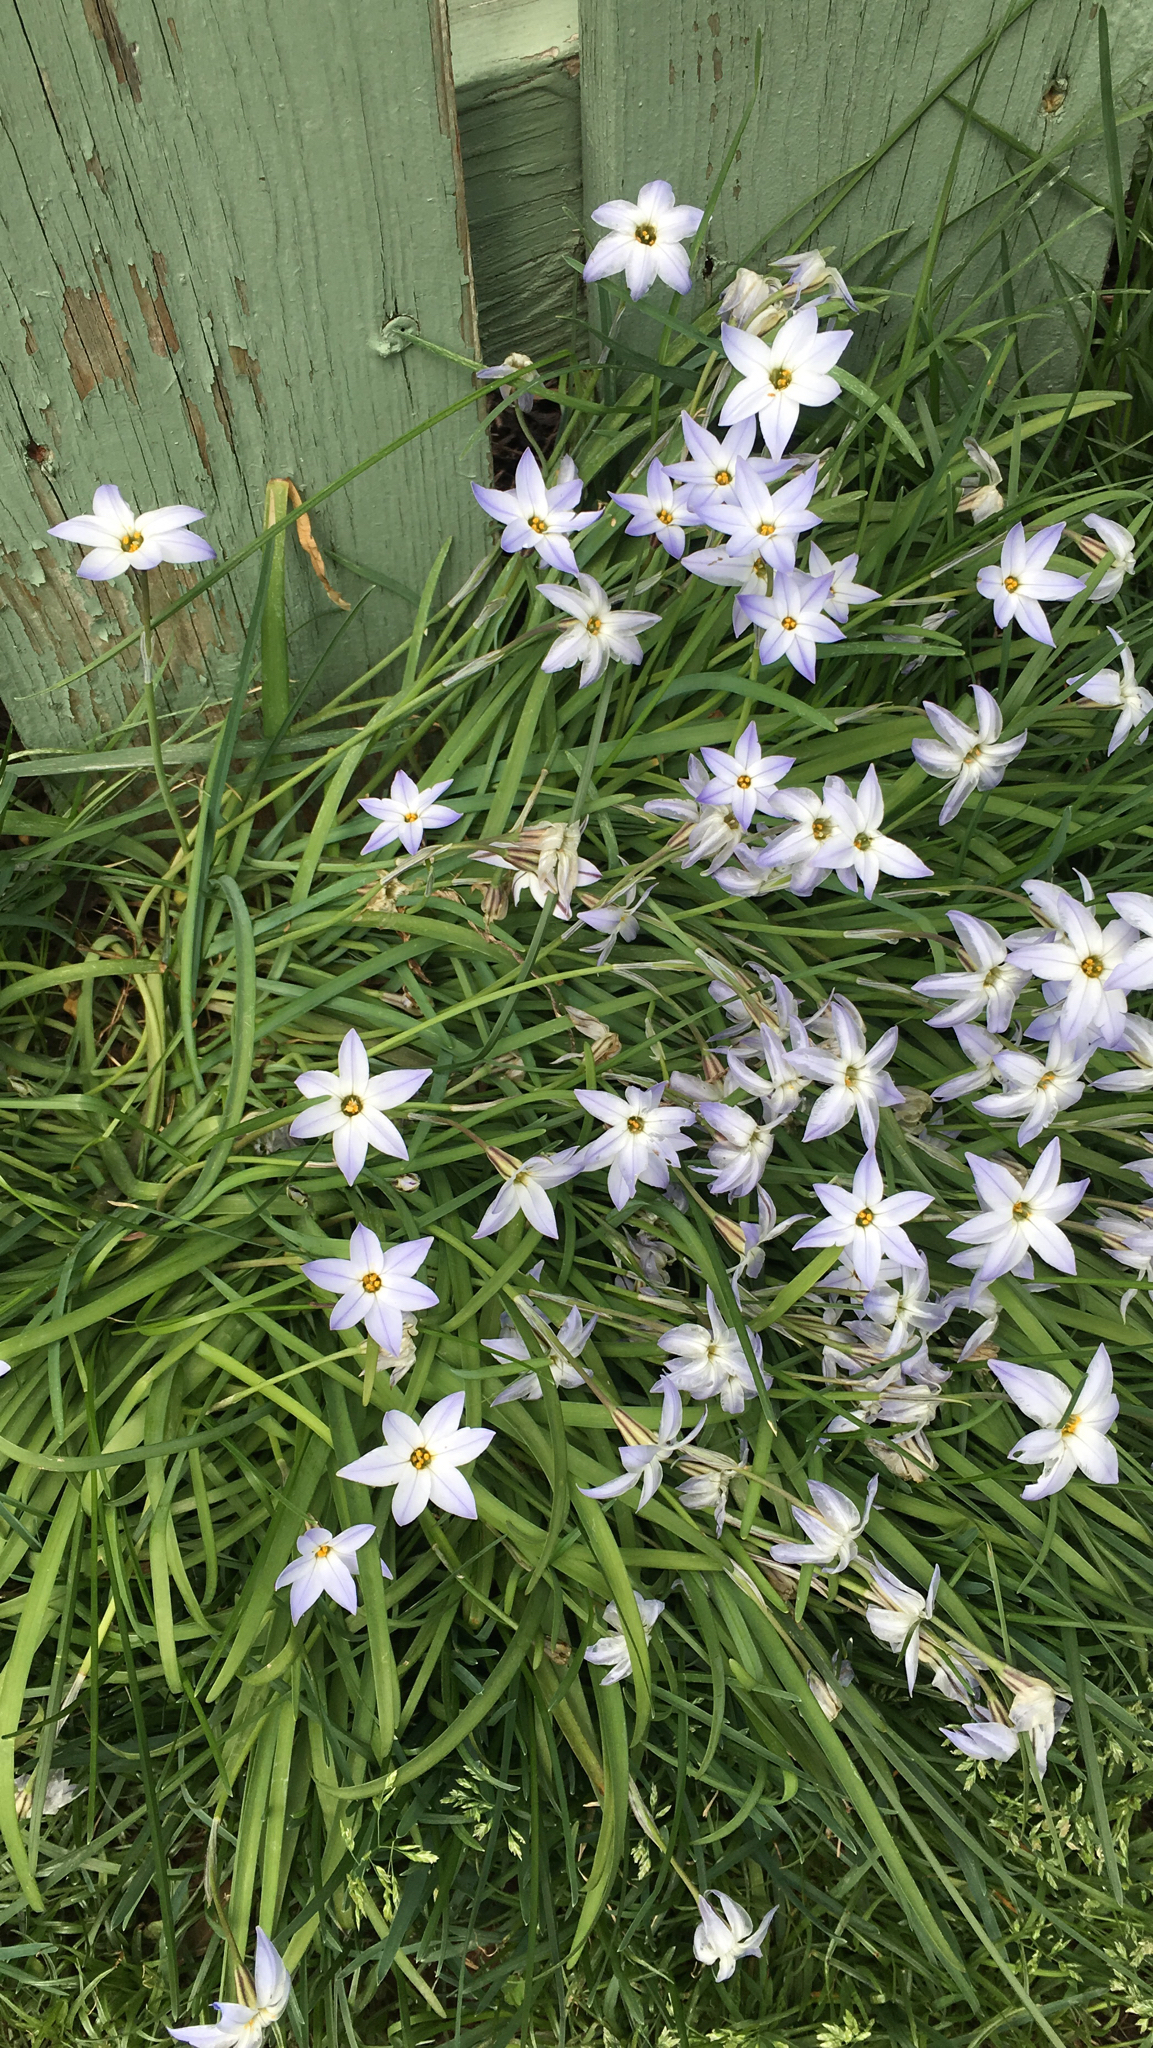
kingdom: Plantae
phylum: Tracheophyta
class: Liliopsida
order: Asparagales
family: Amaryllidaceae
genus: Ipheion
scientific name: Ipheion uniflorum
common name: Spring starflower
